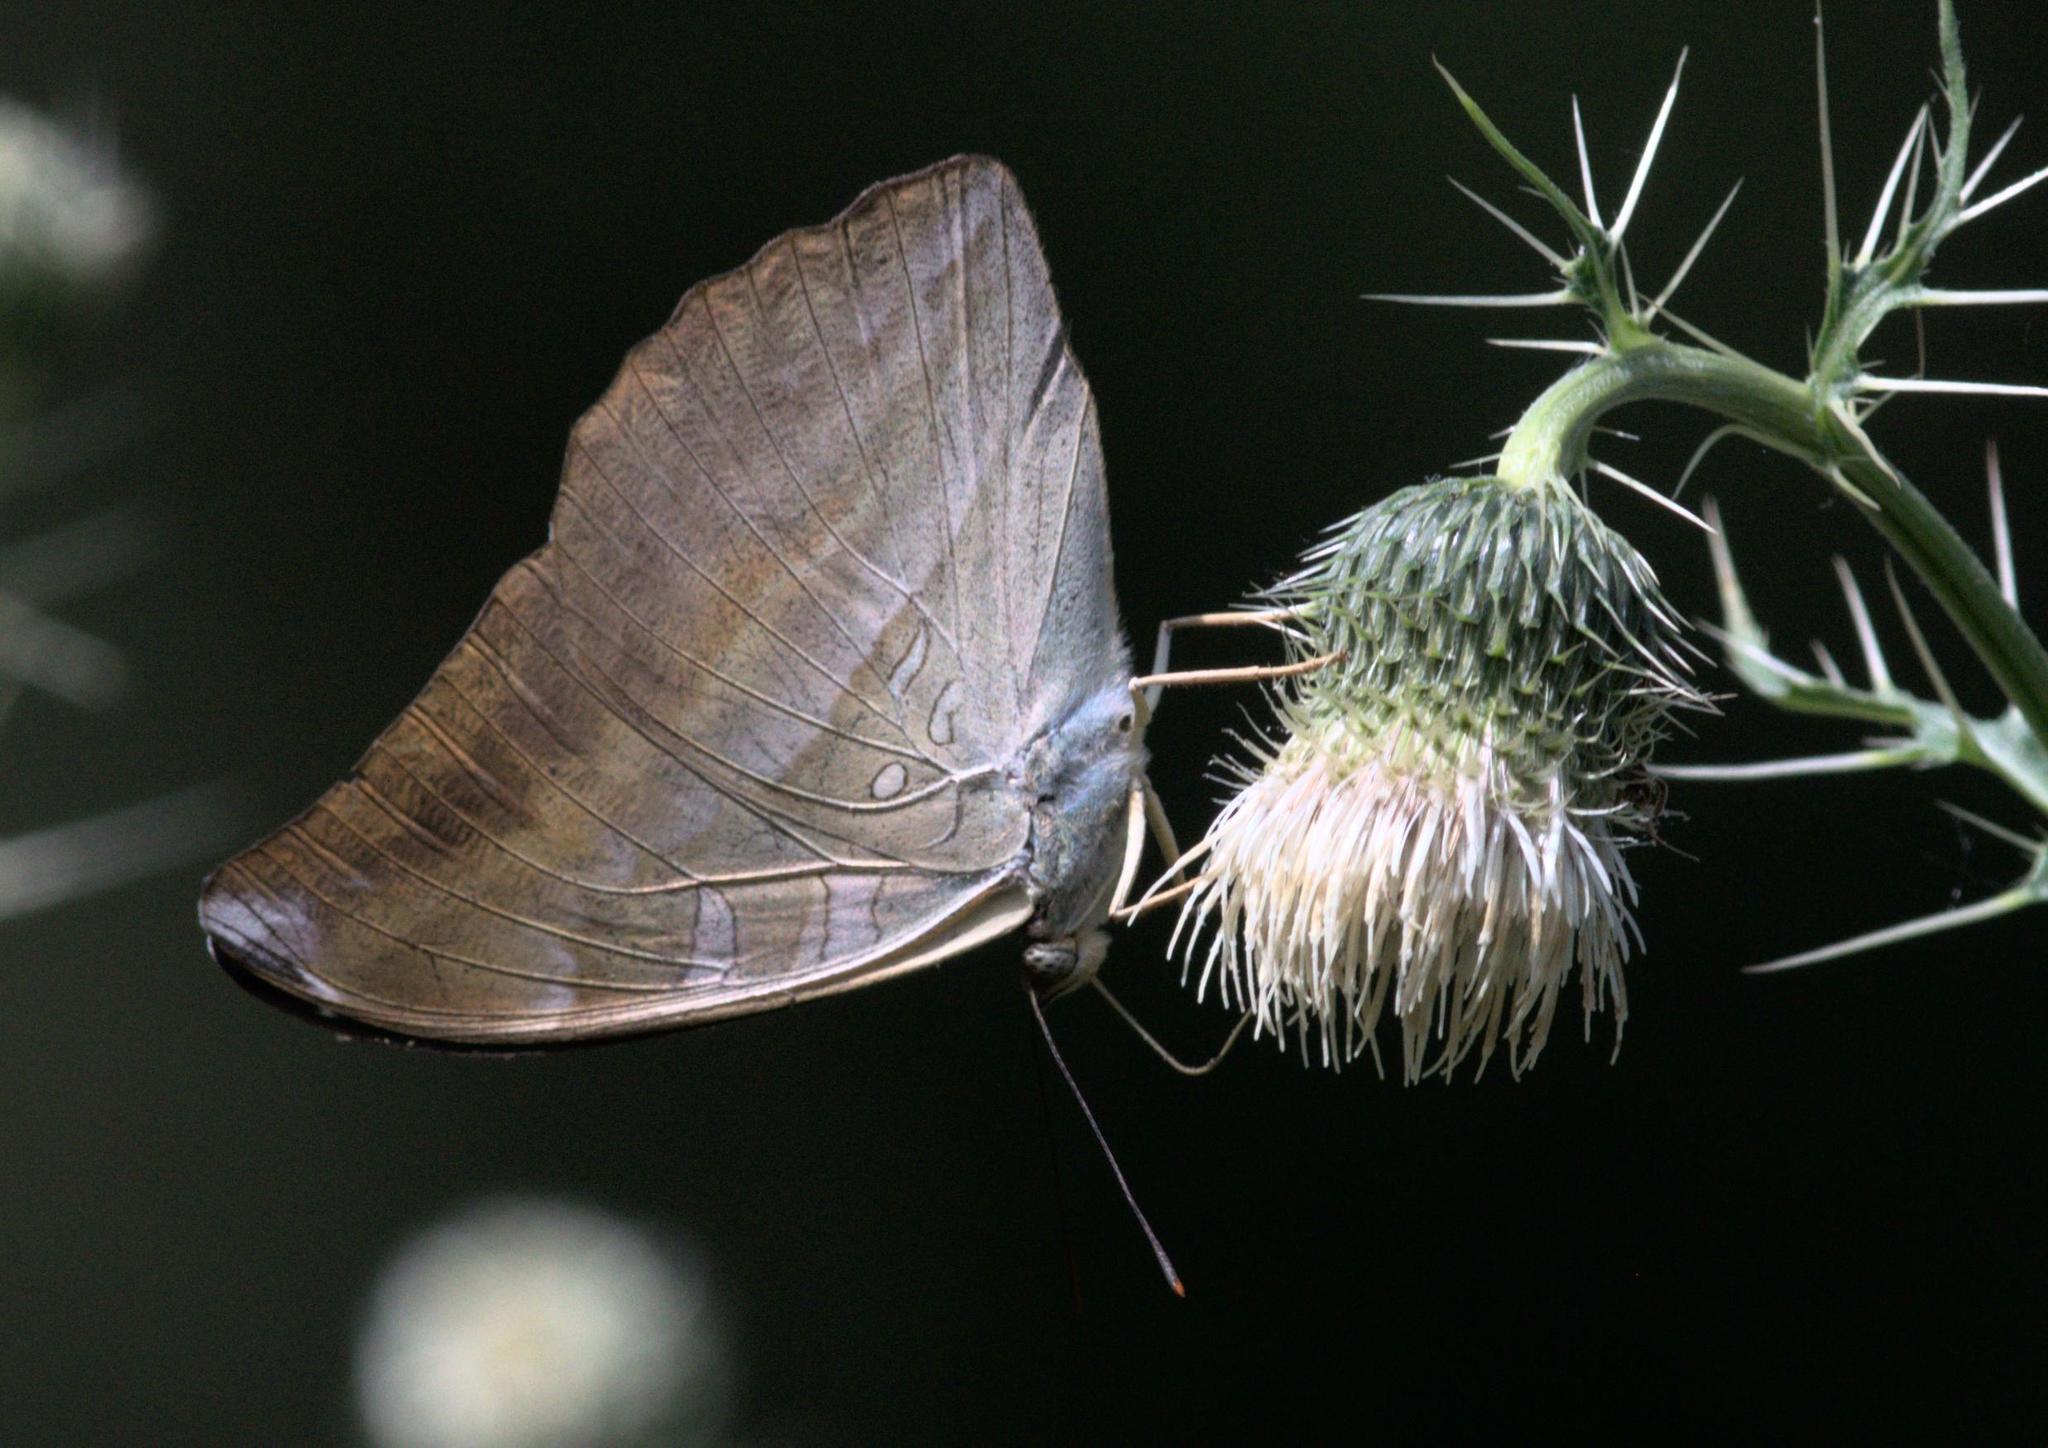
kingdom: Animalia
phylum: Arthropoda
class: Insecta
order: Lepidoptera
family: Nymphalidae
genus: Limenitis
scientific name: Limenitis Auzakia danava
